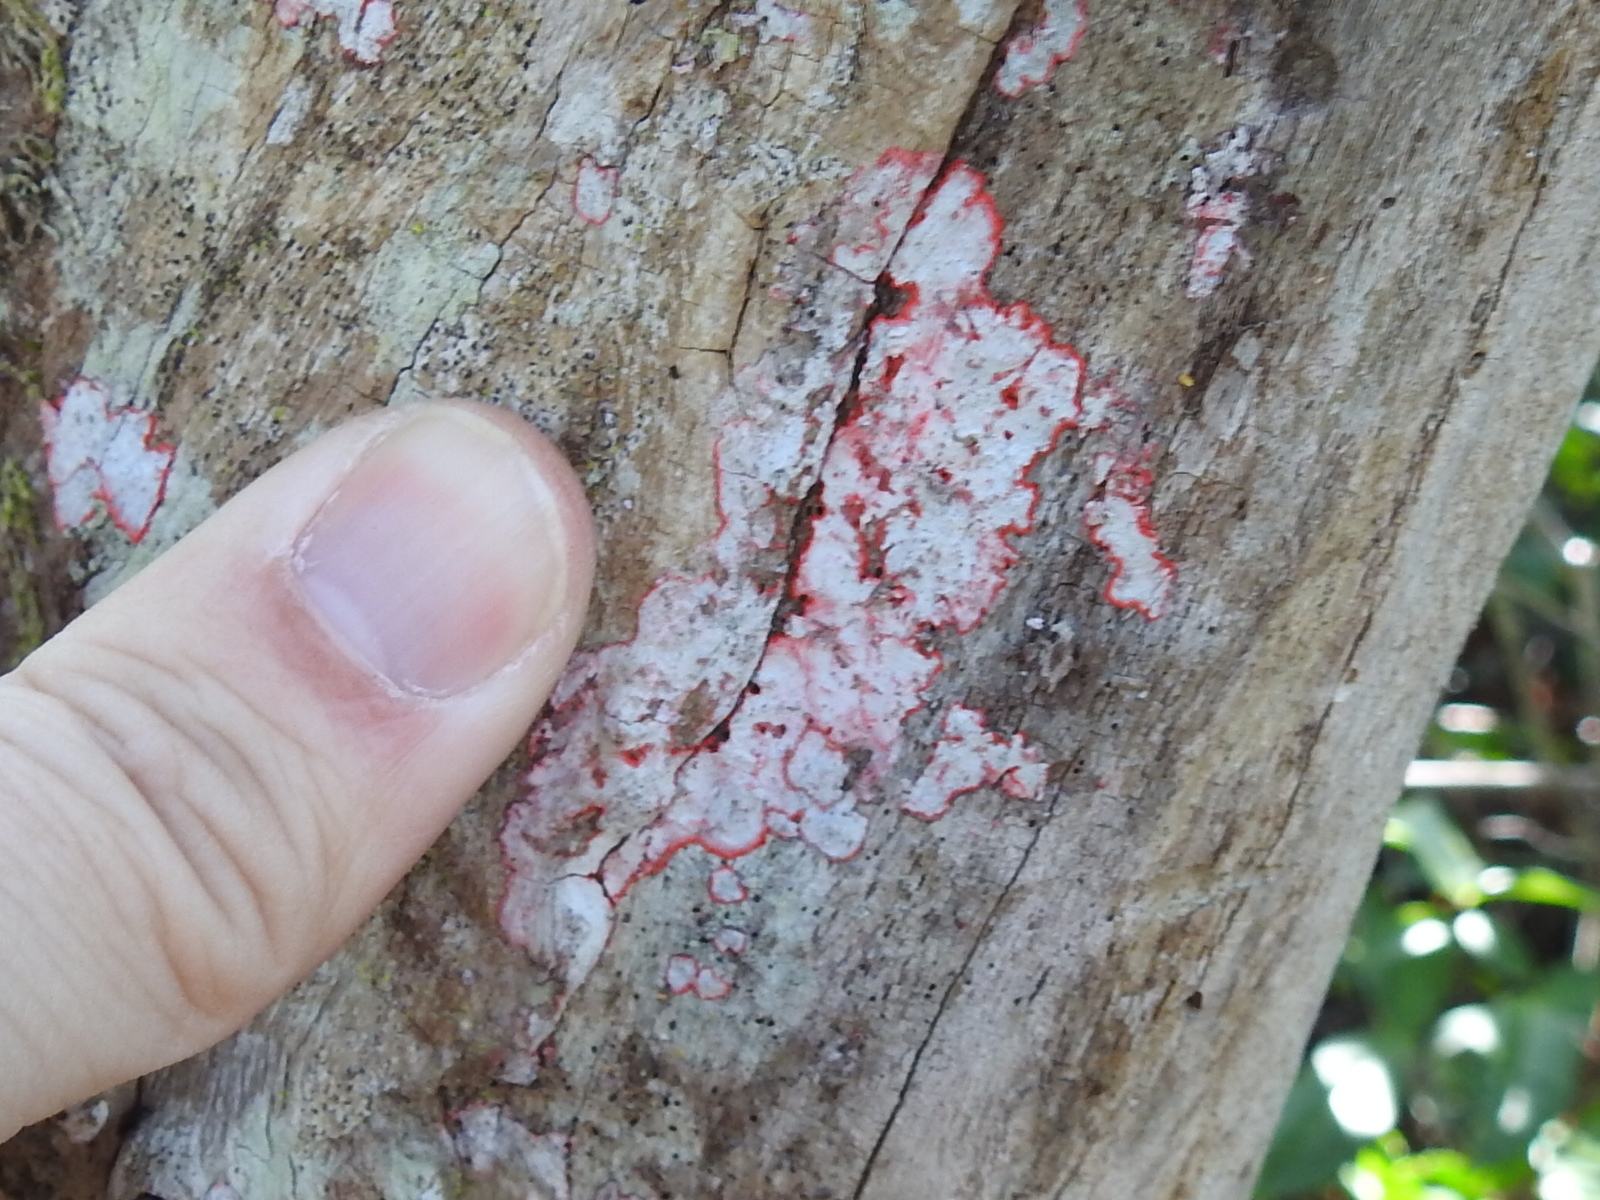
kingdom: Fungi
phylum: Ascomycota
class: Arthoniomycetes
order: Arthoniales
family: Arthoniaceae
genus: Herpothallon
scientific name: Herpothallon rubrocinctum
